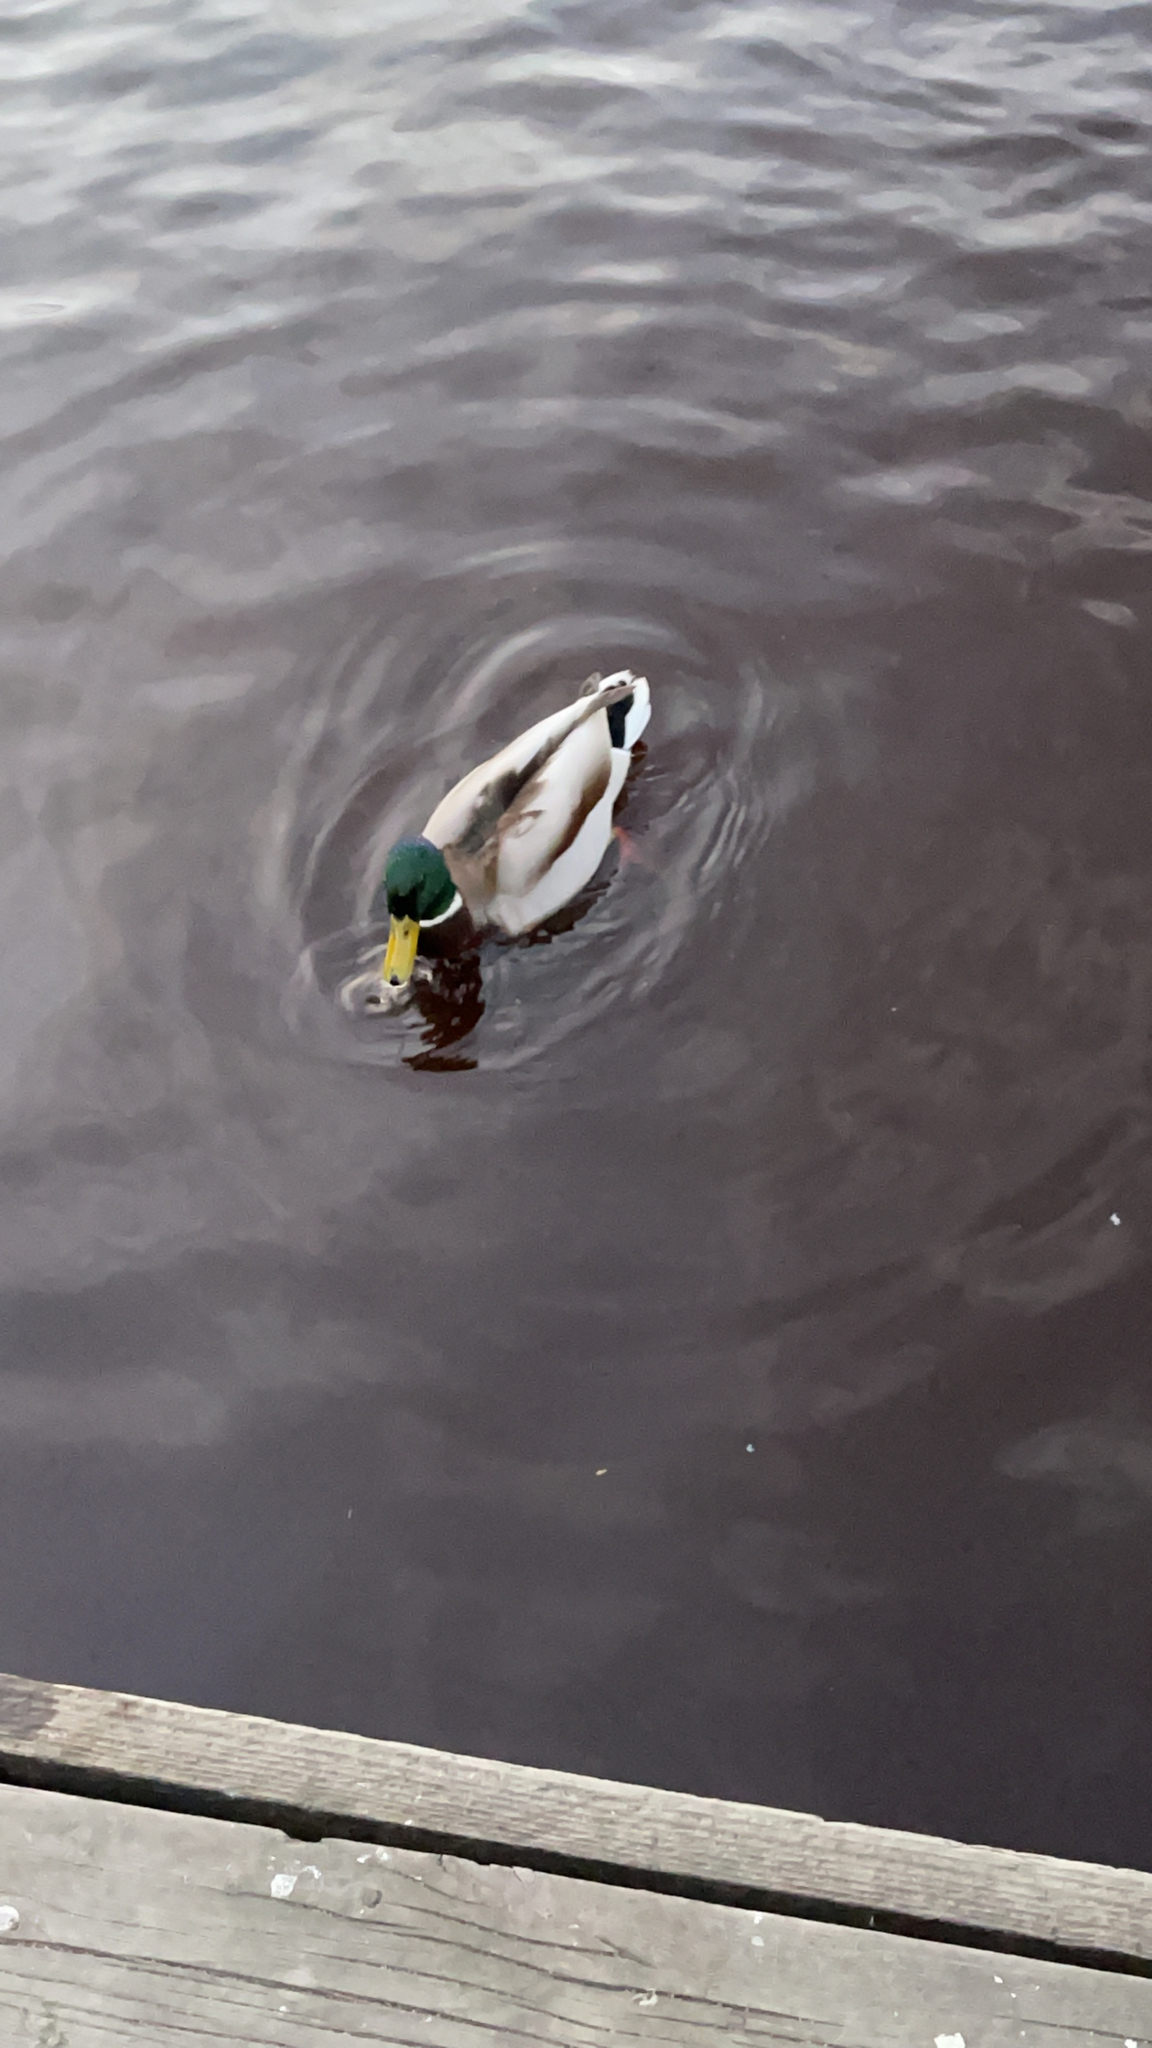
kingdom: Animalia
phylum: Chordata
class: Aves
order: Anseriformes
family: Anatidae
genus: Anas
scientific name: Anas platyrhynchos
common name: Mallard
